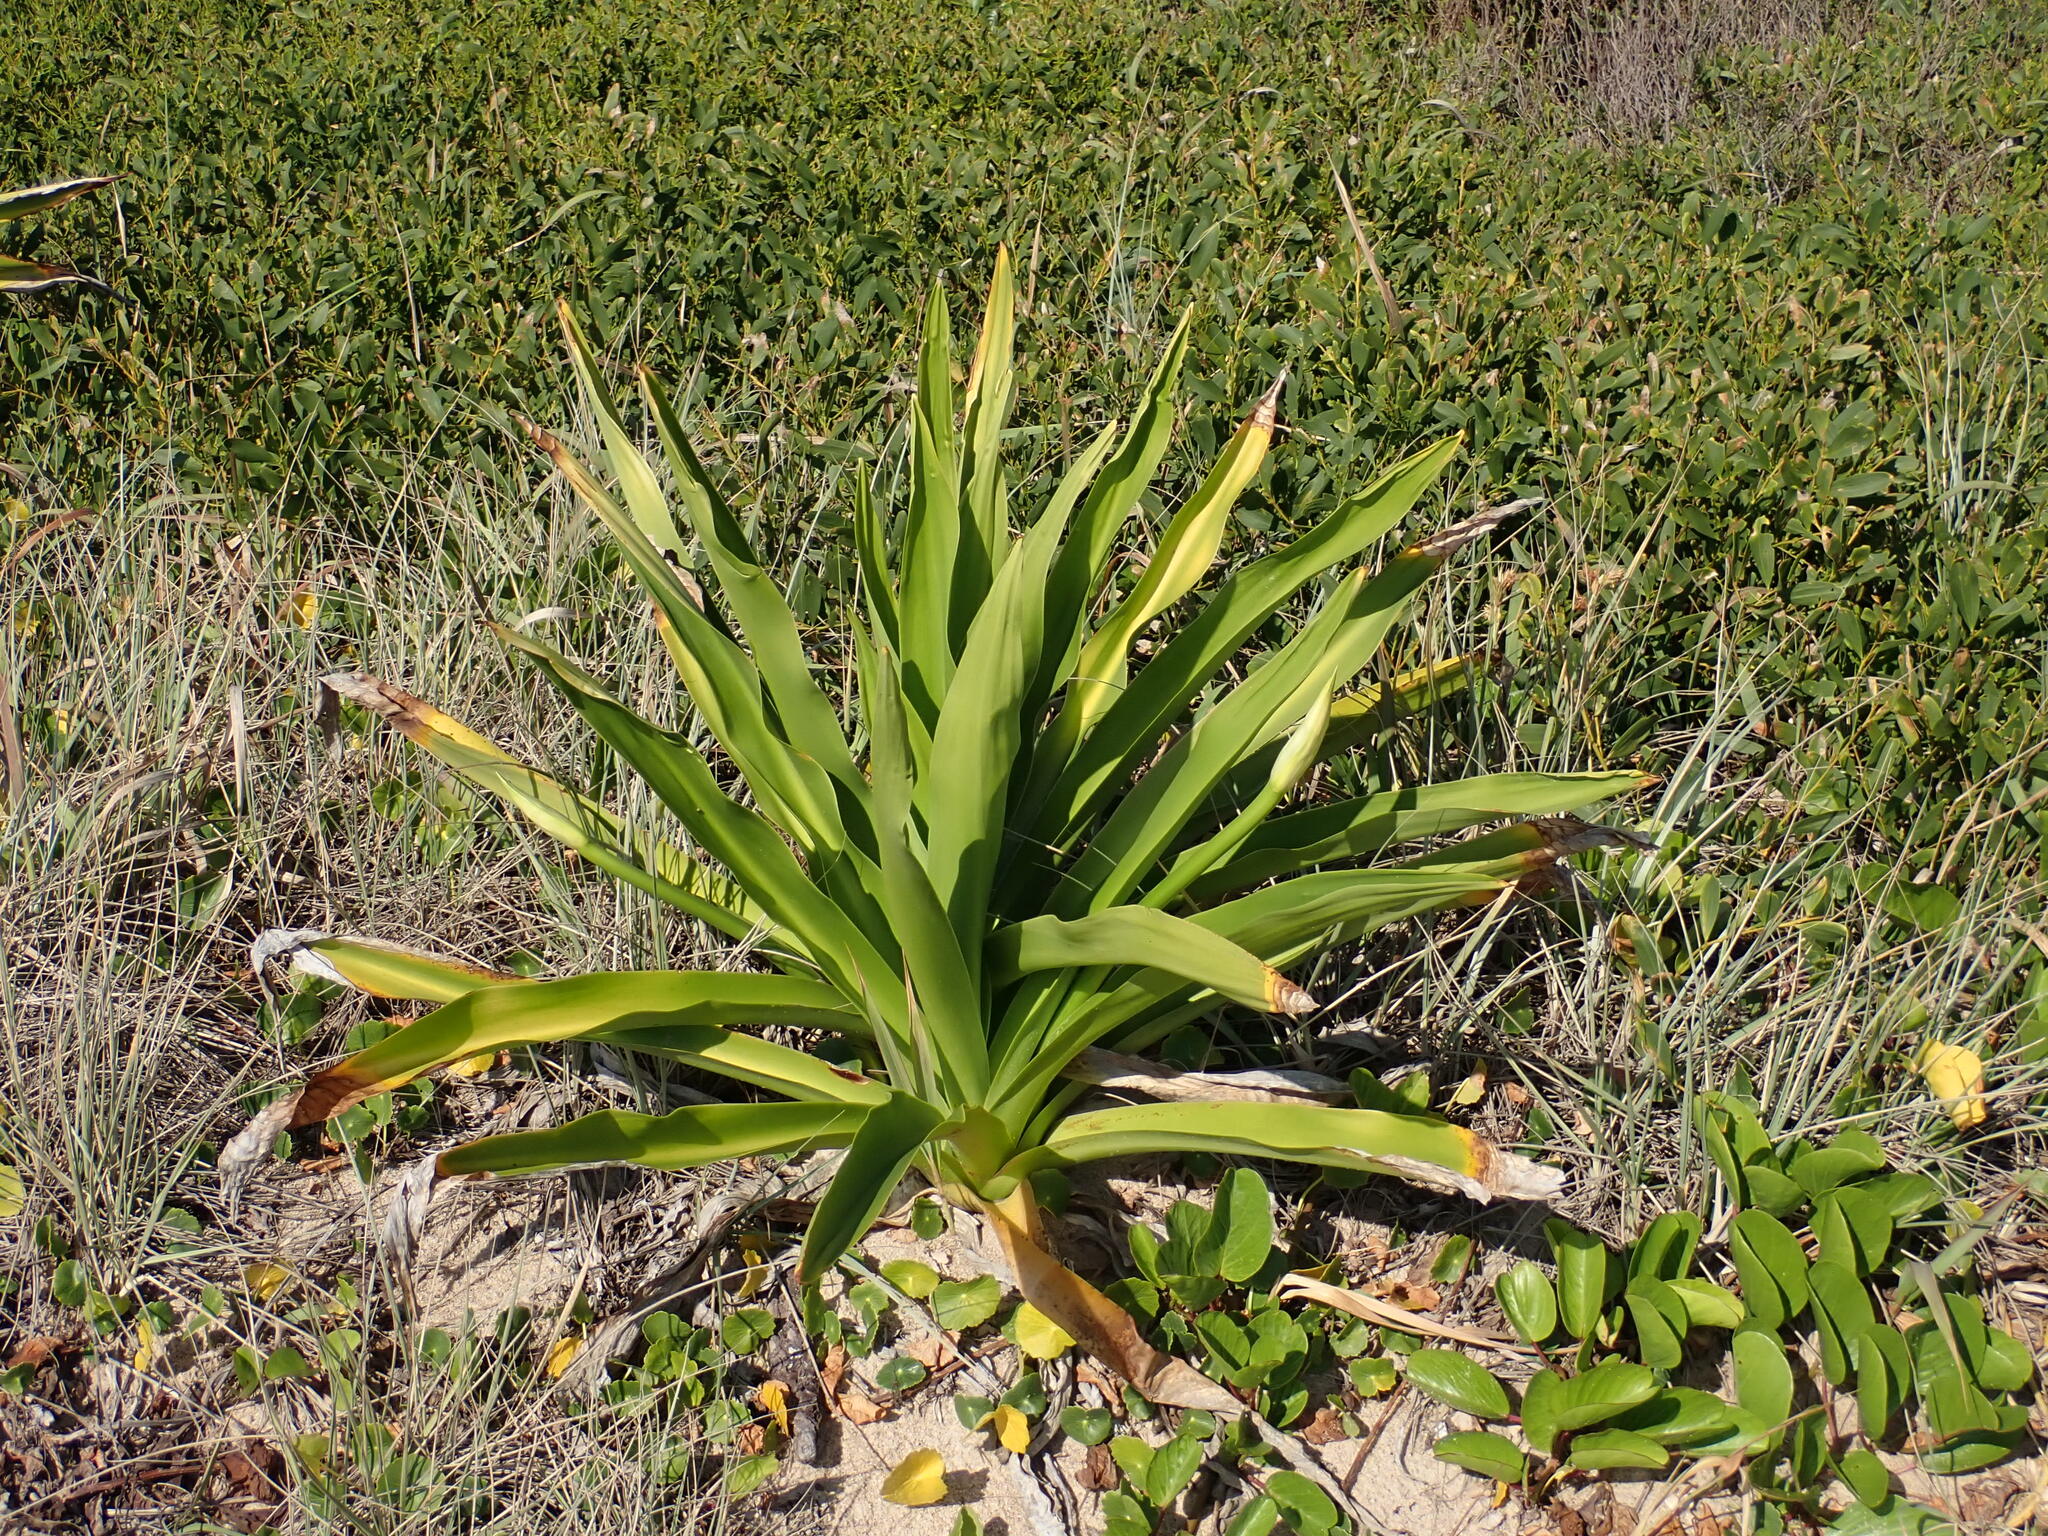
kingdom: Plantae
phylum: Tracheophyta
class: Liliopsida
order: Asparagales
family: Amaryllidaceae
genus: Crinum
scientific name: Crinum pedunculatum
